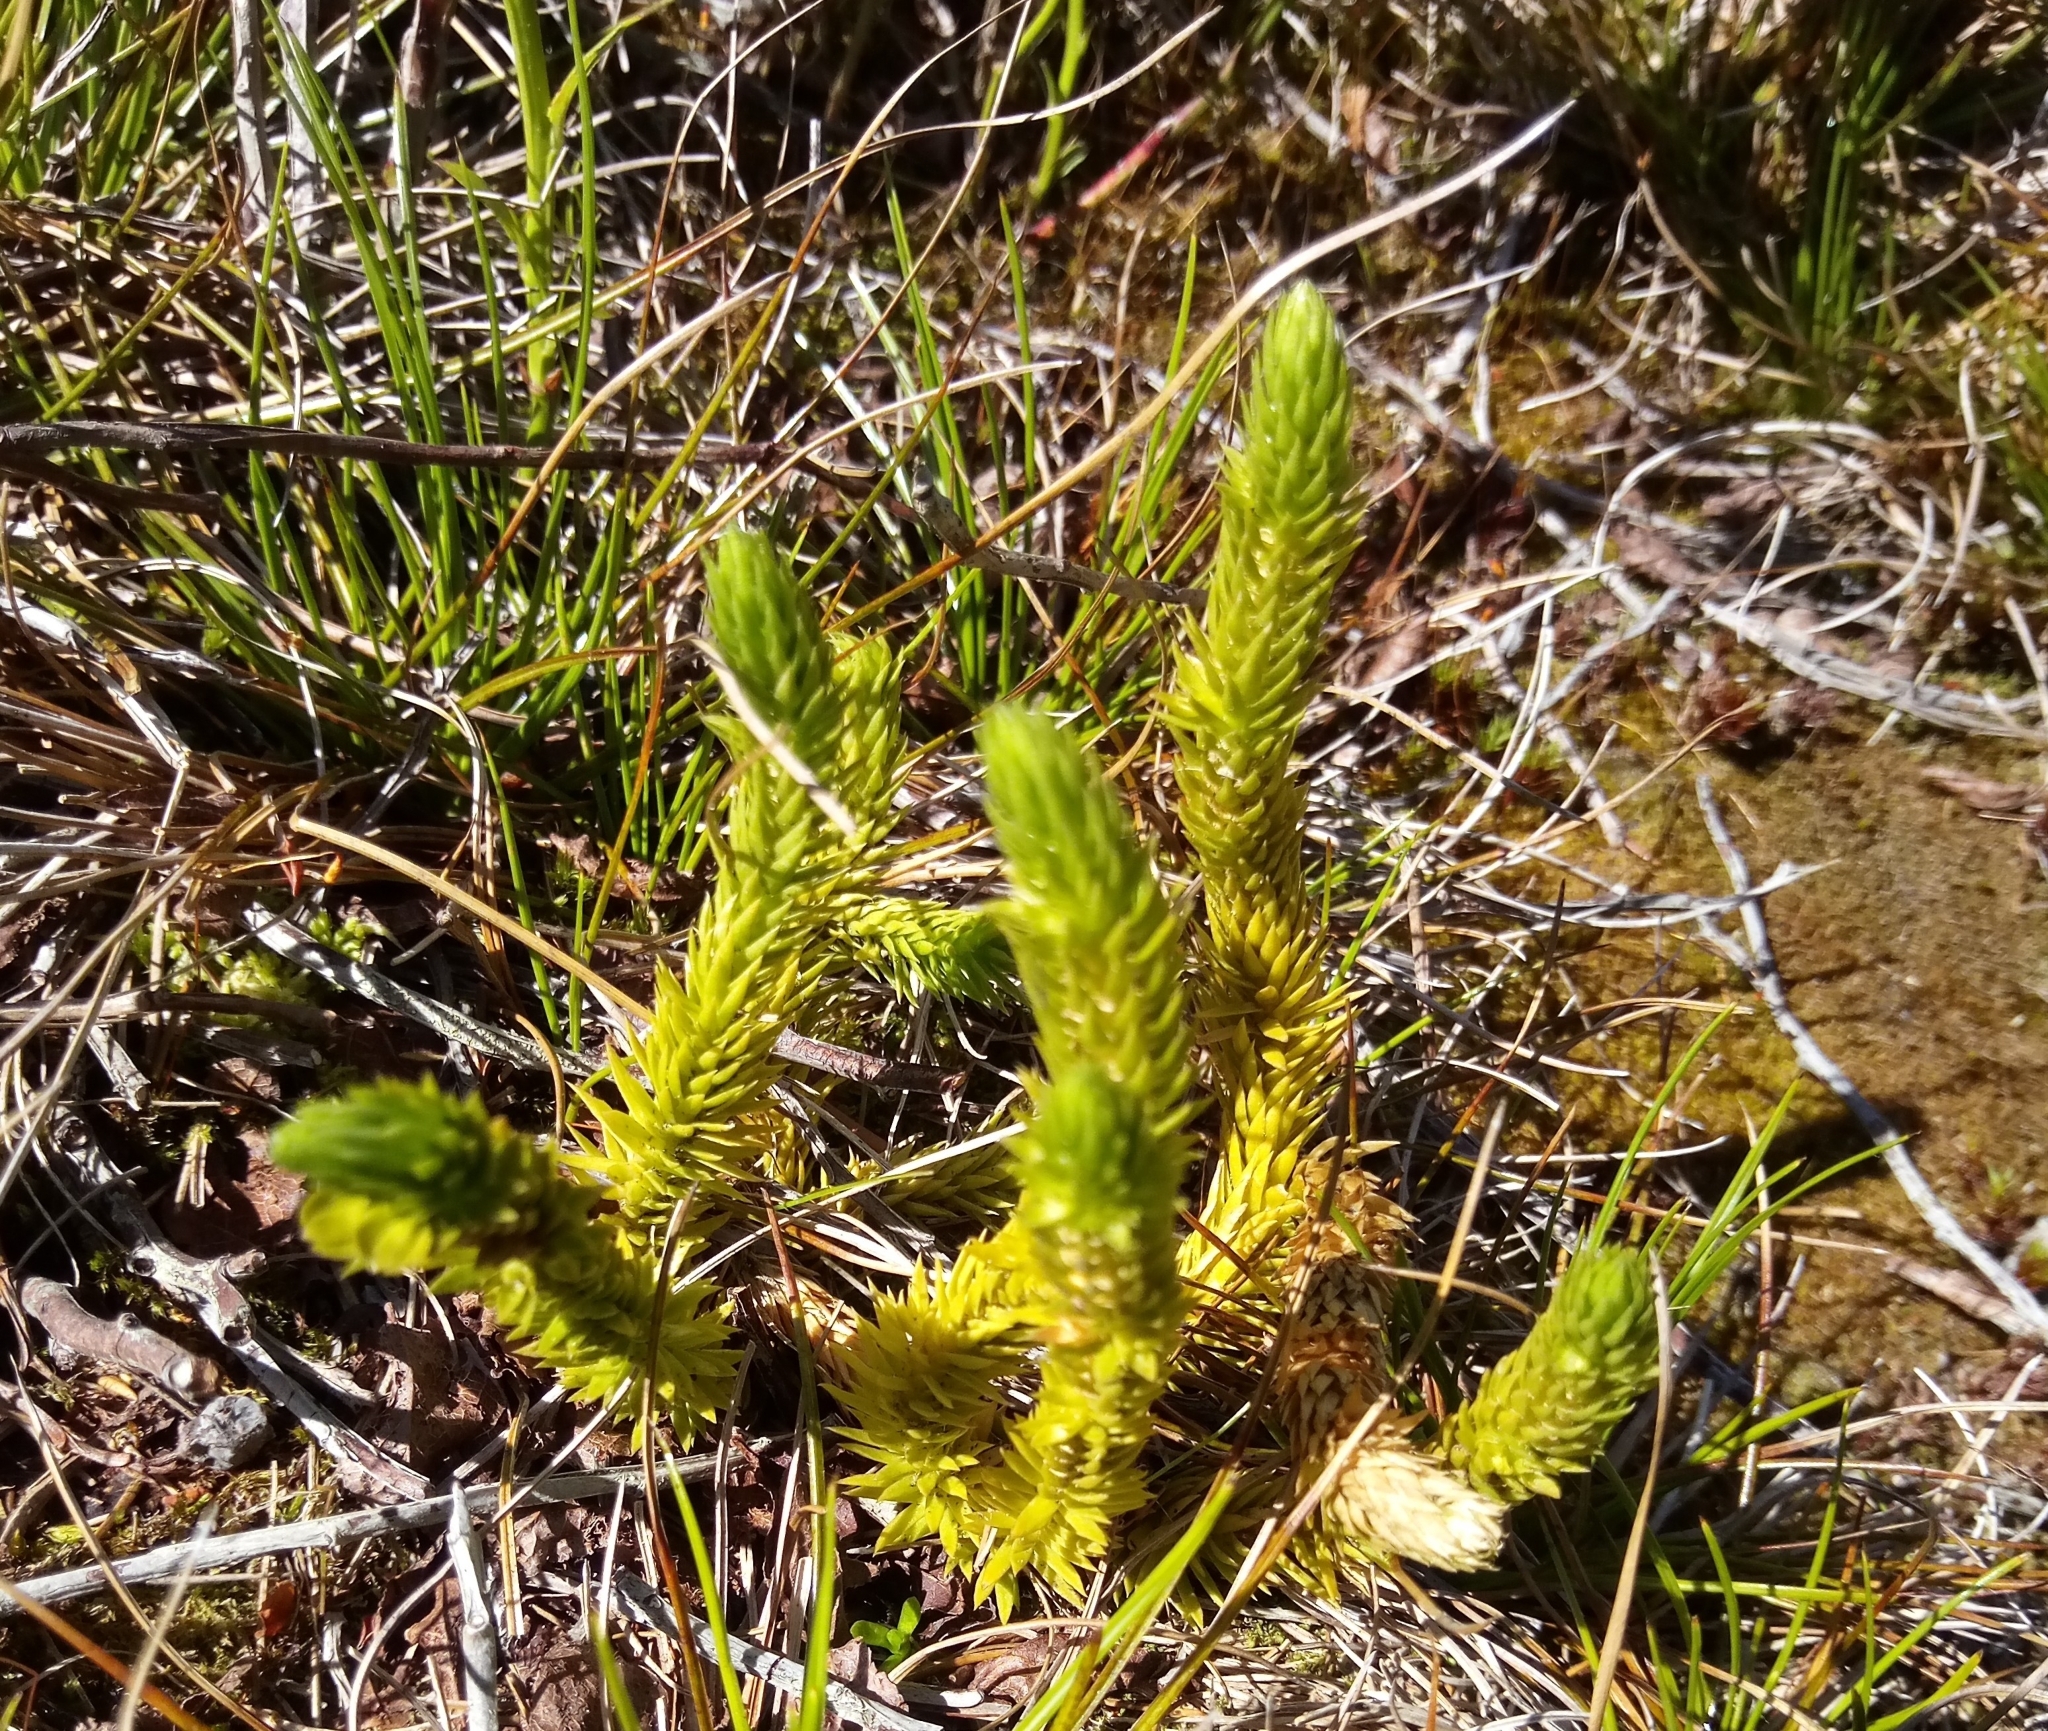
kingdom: Plantae
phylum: Tracheophyta
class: Lycopodiopsida
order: Lycopodiales
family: Lycopodiaceae
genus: Huperzia
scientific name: Huperzia selago
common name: Northern firmoss
